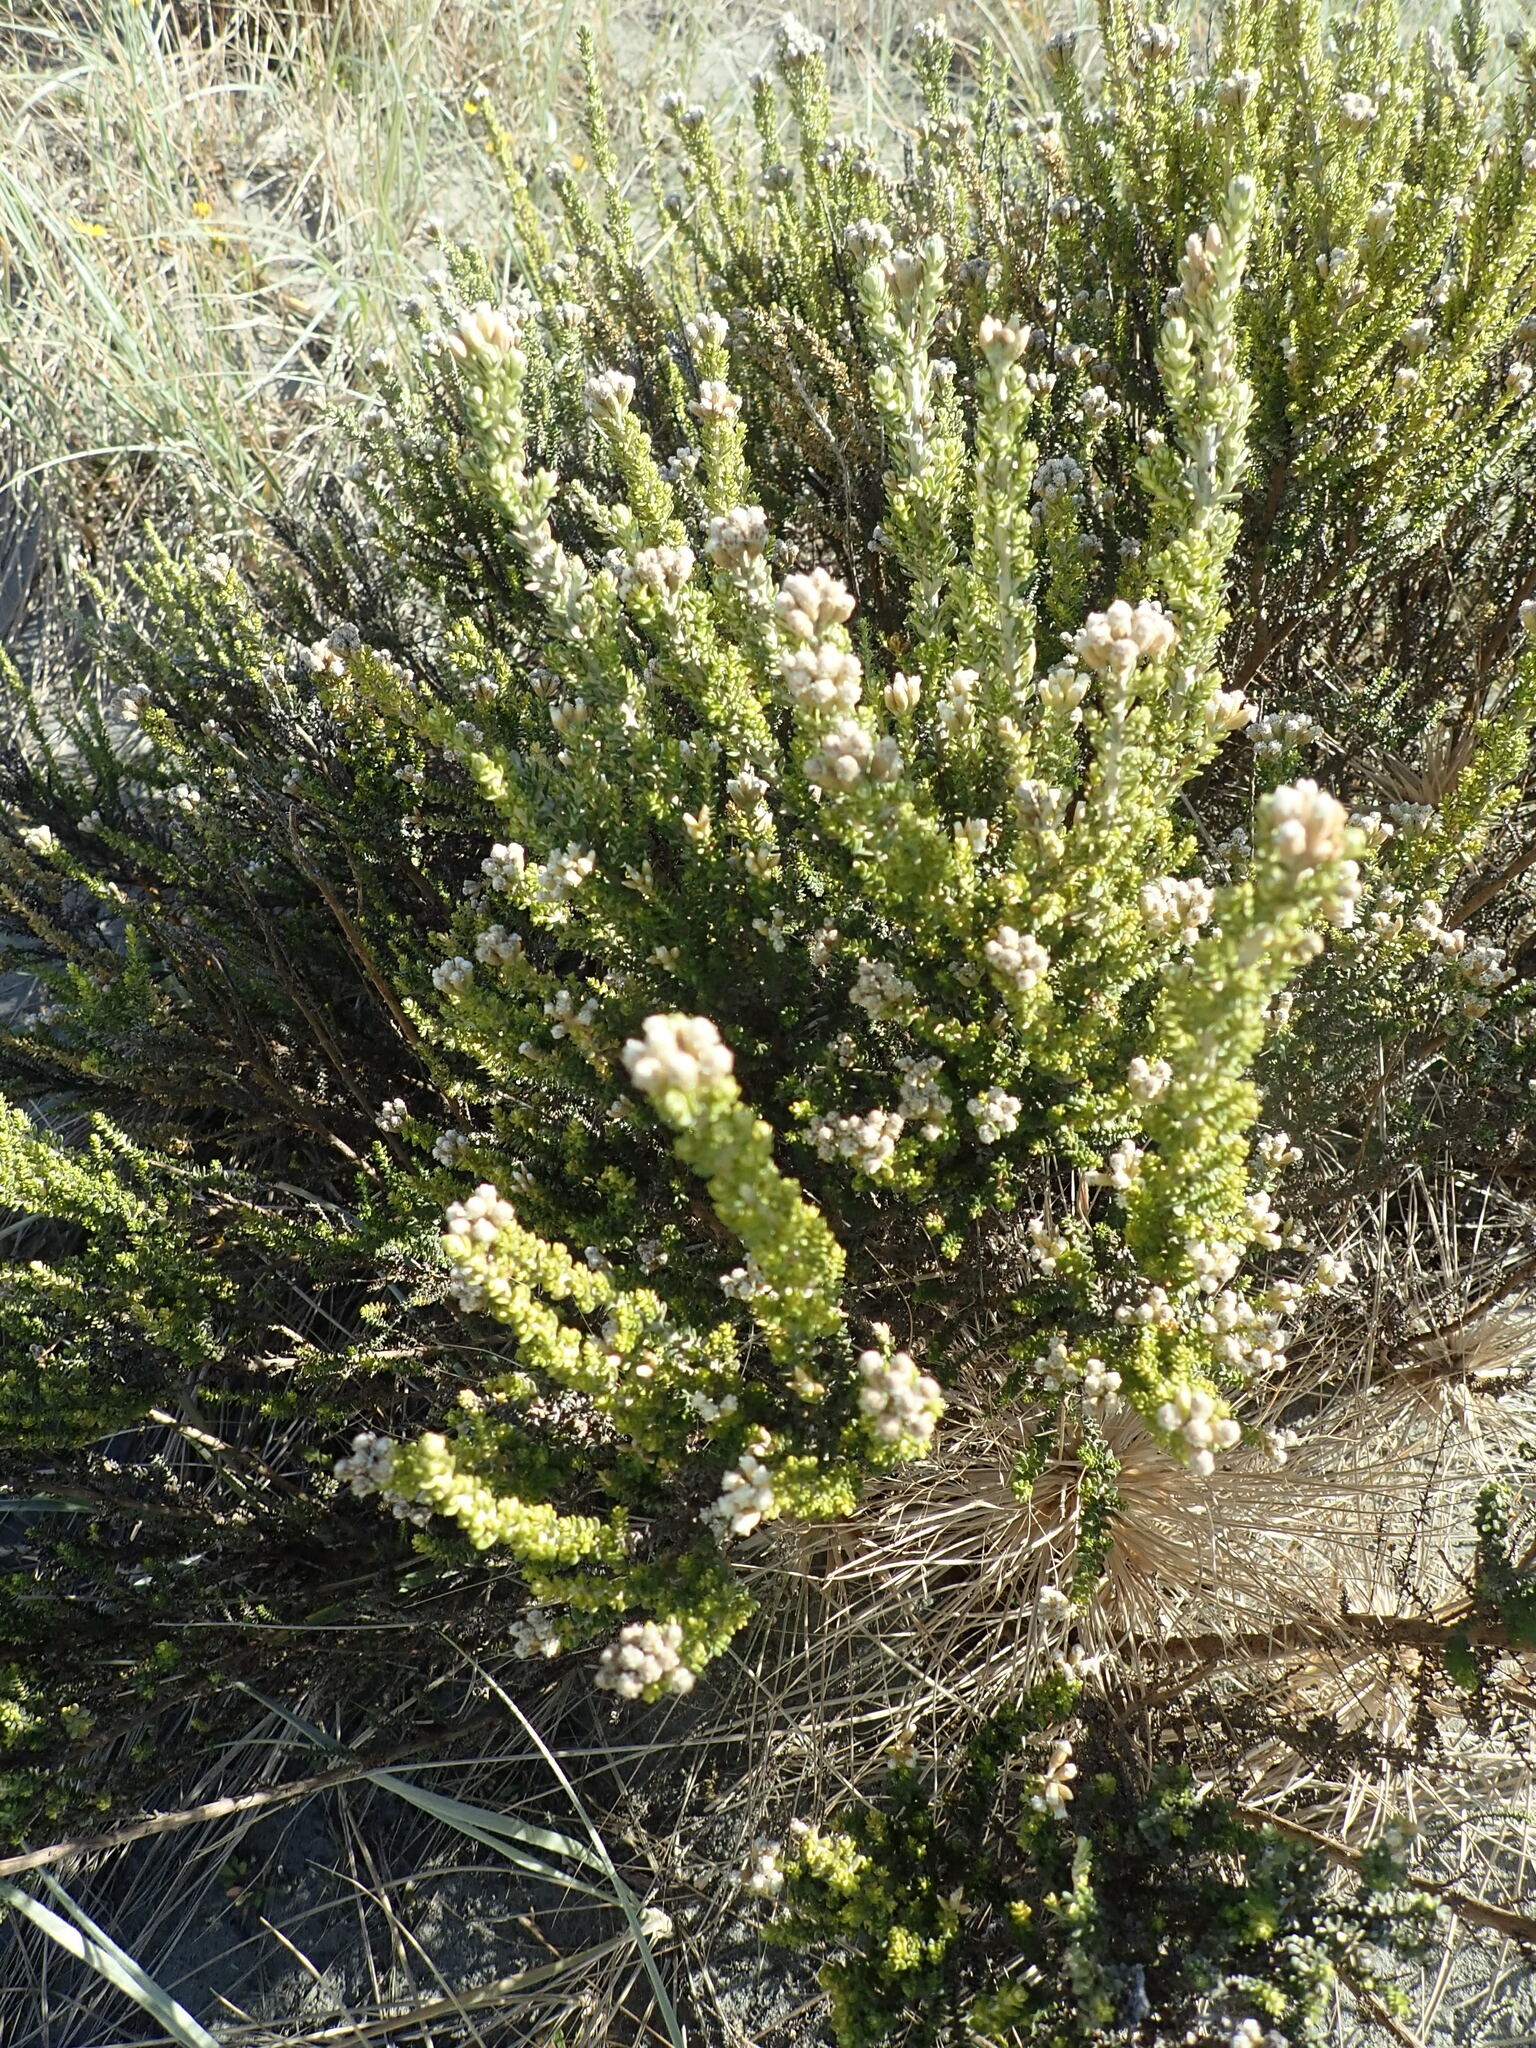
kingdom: Plantae
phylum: Tracheophyta
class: Magnoliopsida
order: Asterales
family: Asteraceae
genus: Ozothamnus
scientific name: Ozothamnus leptophyllus
